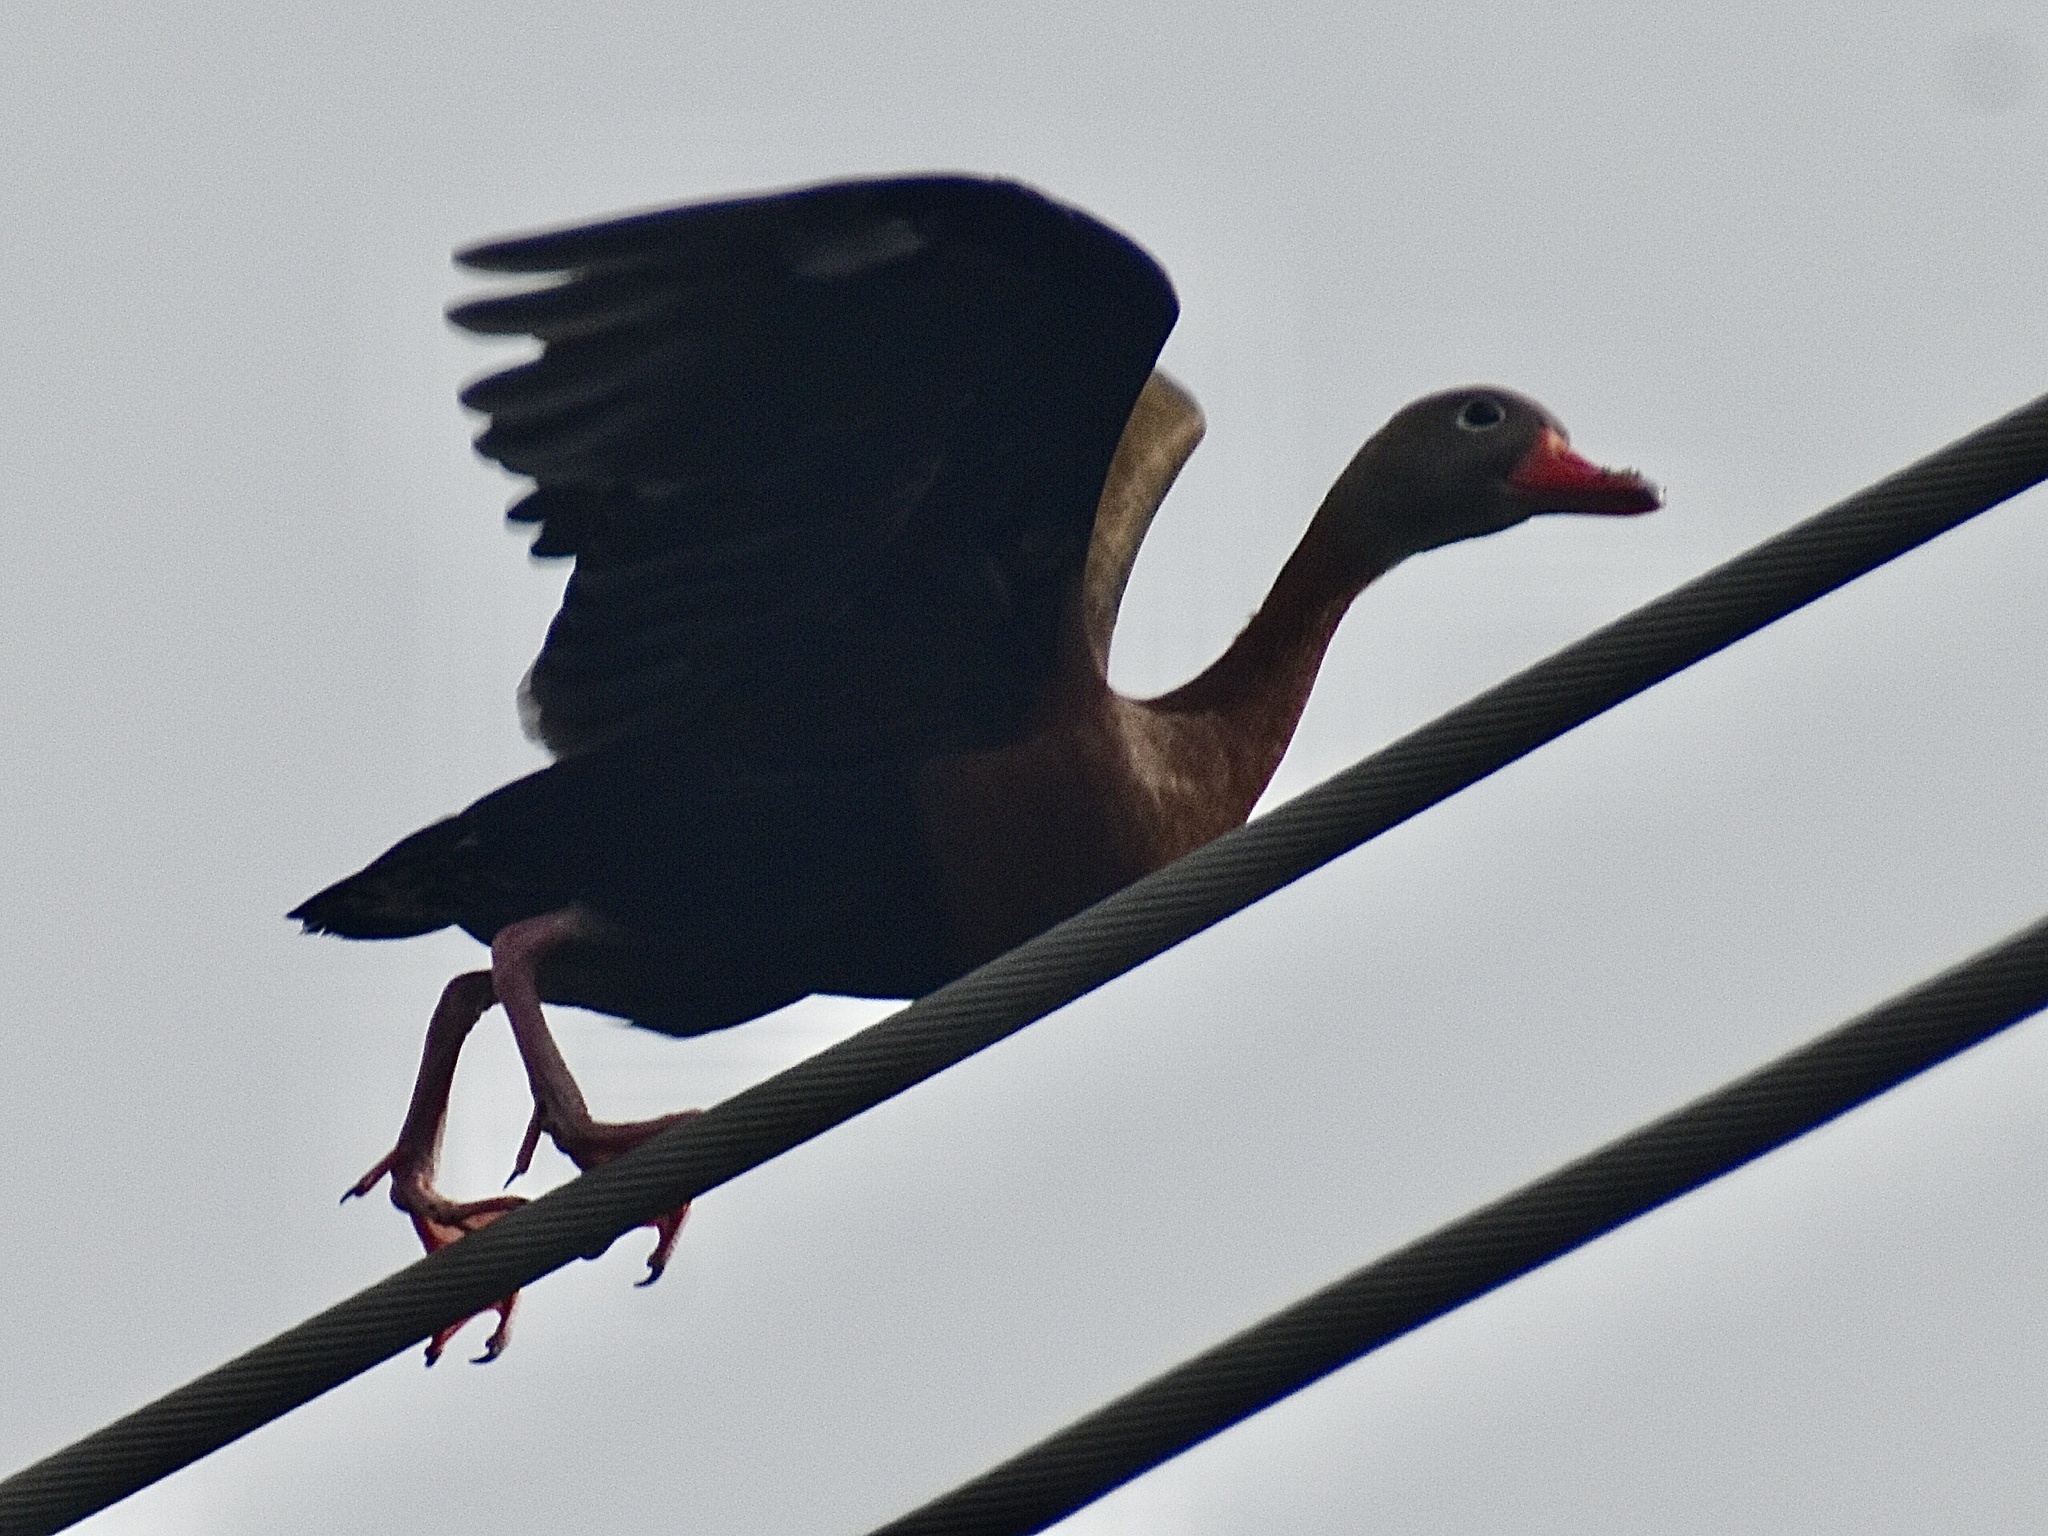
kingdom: Animalia
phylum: Chordata
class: Aves
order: Anseriformes
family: Anatidae
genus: Dendrocygna
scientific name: Dendrocygna autumnalis
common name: Black-bellied whistling duck
